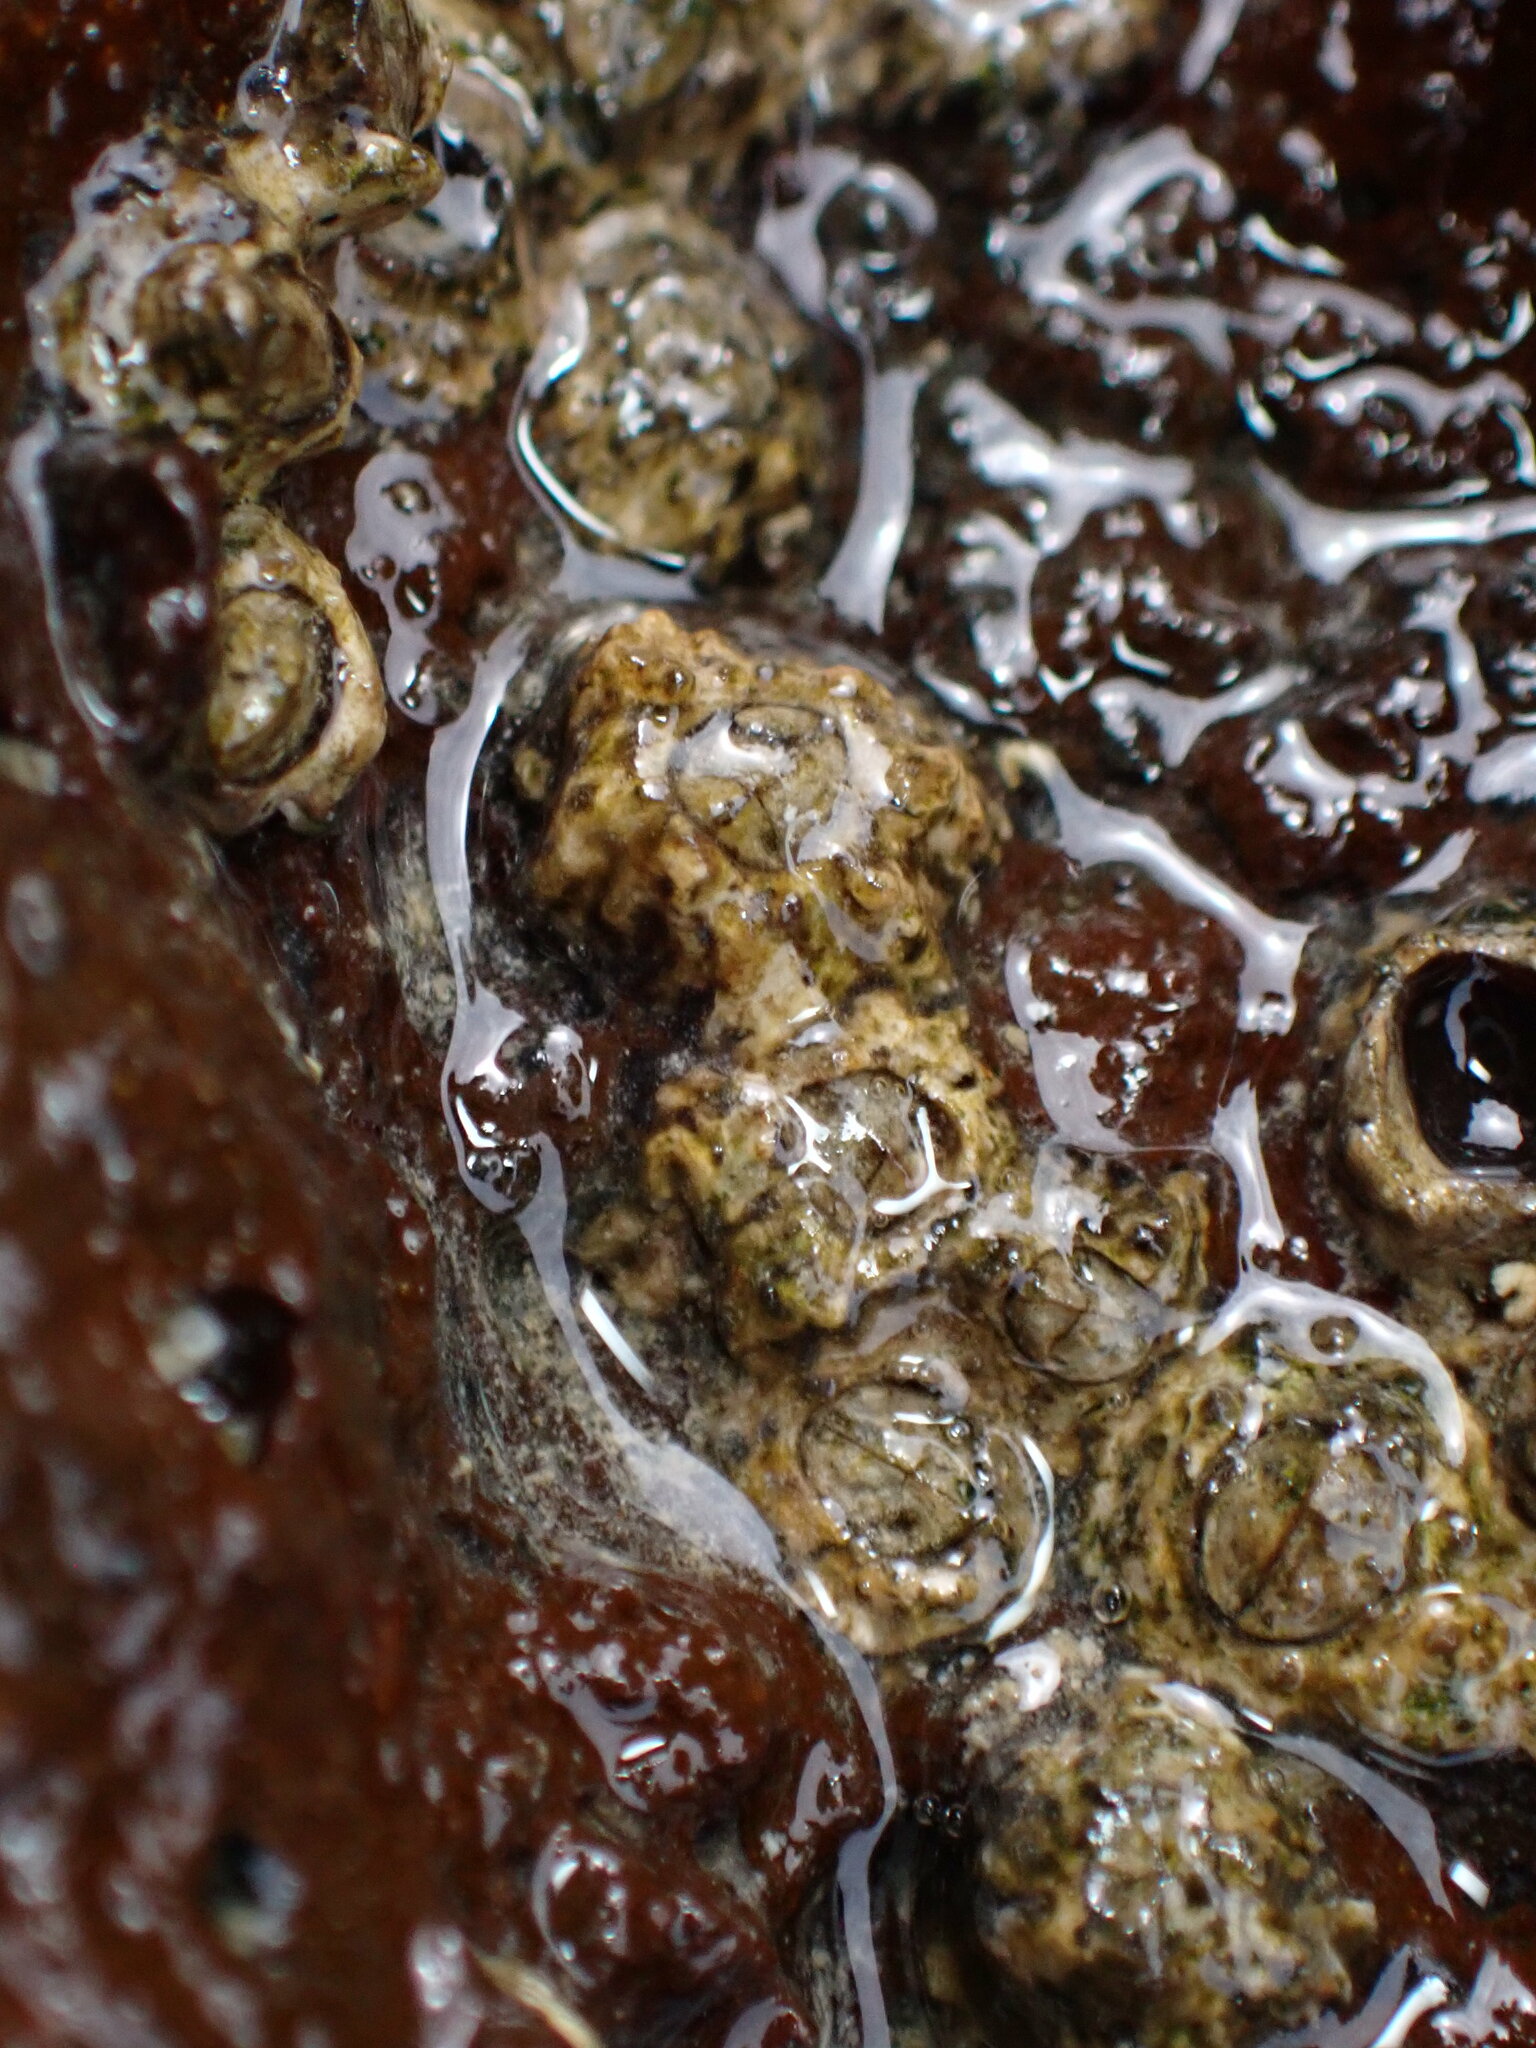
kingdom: Animalia
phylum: Arthropoda
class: Maxillopoda
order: Sessilia
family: Chthamalidae
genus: Chthamalus
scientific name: Chthamalus stellatus
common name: Poli's stellate barnacle
